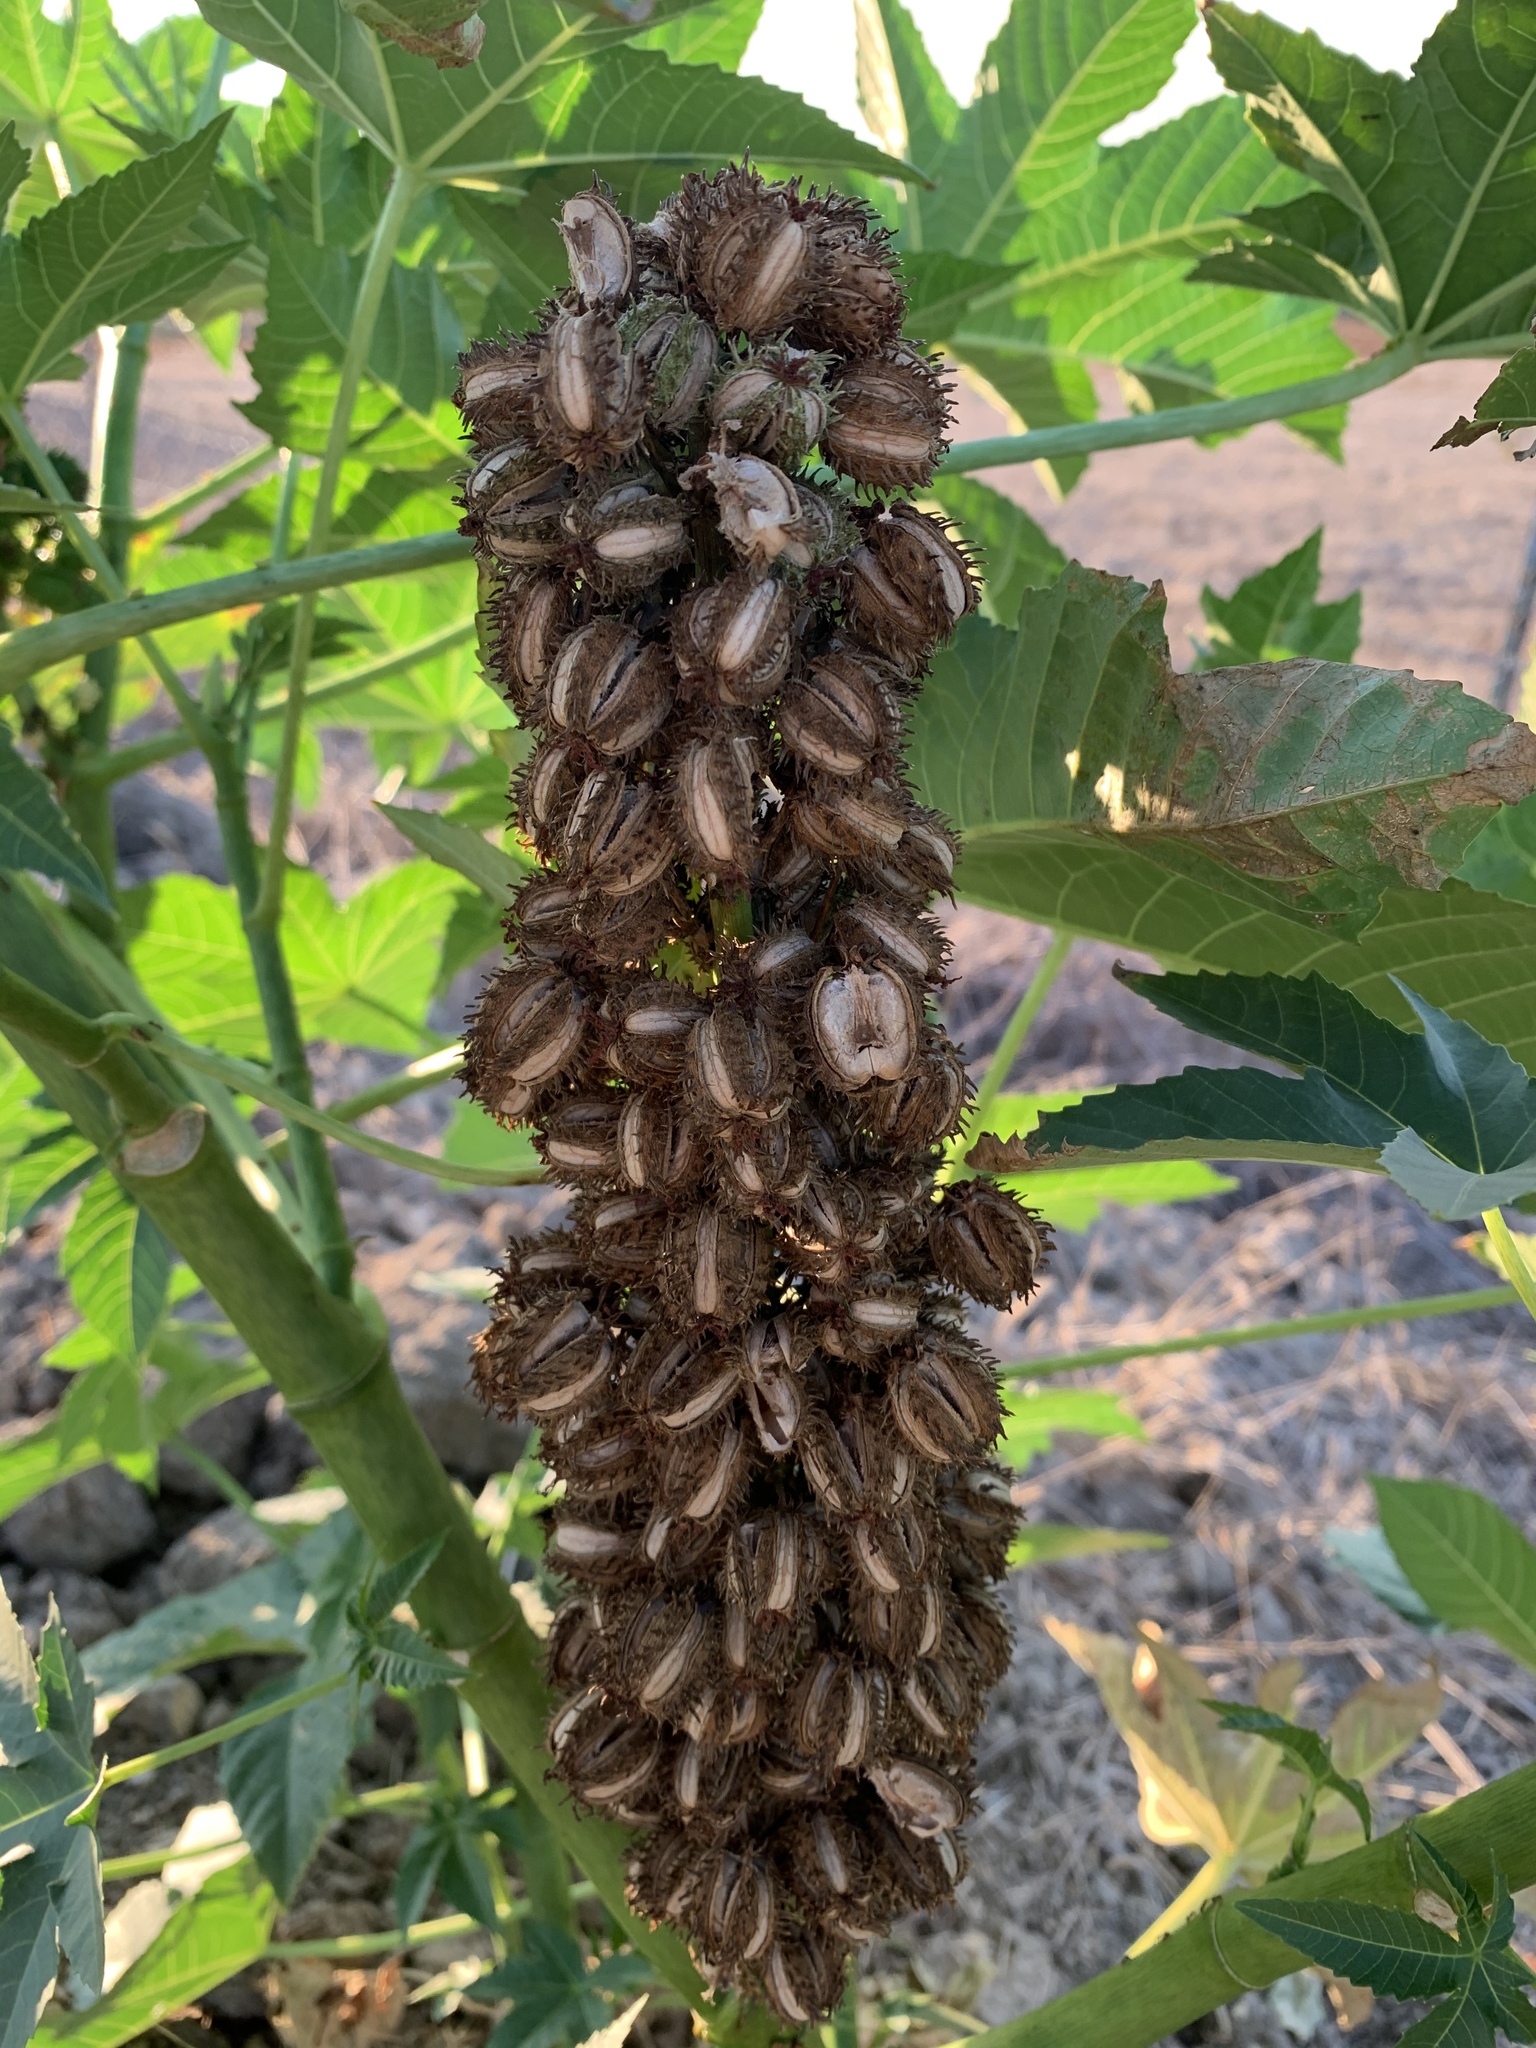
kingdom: Plantae
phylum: Tracheophyta
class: Magnoliopsida
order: Malpighiales
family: Euphorbiaceae
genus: Ricinus
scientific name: Ricinus communis
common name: Castor-oil-plant
